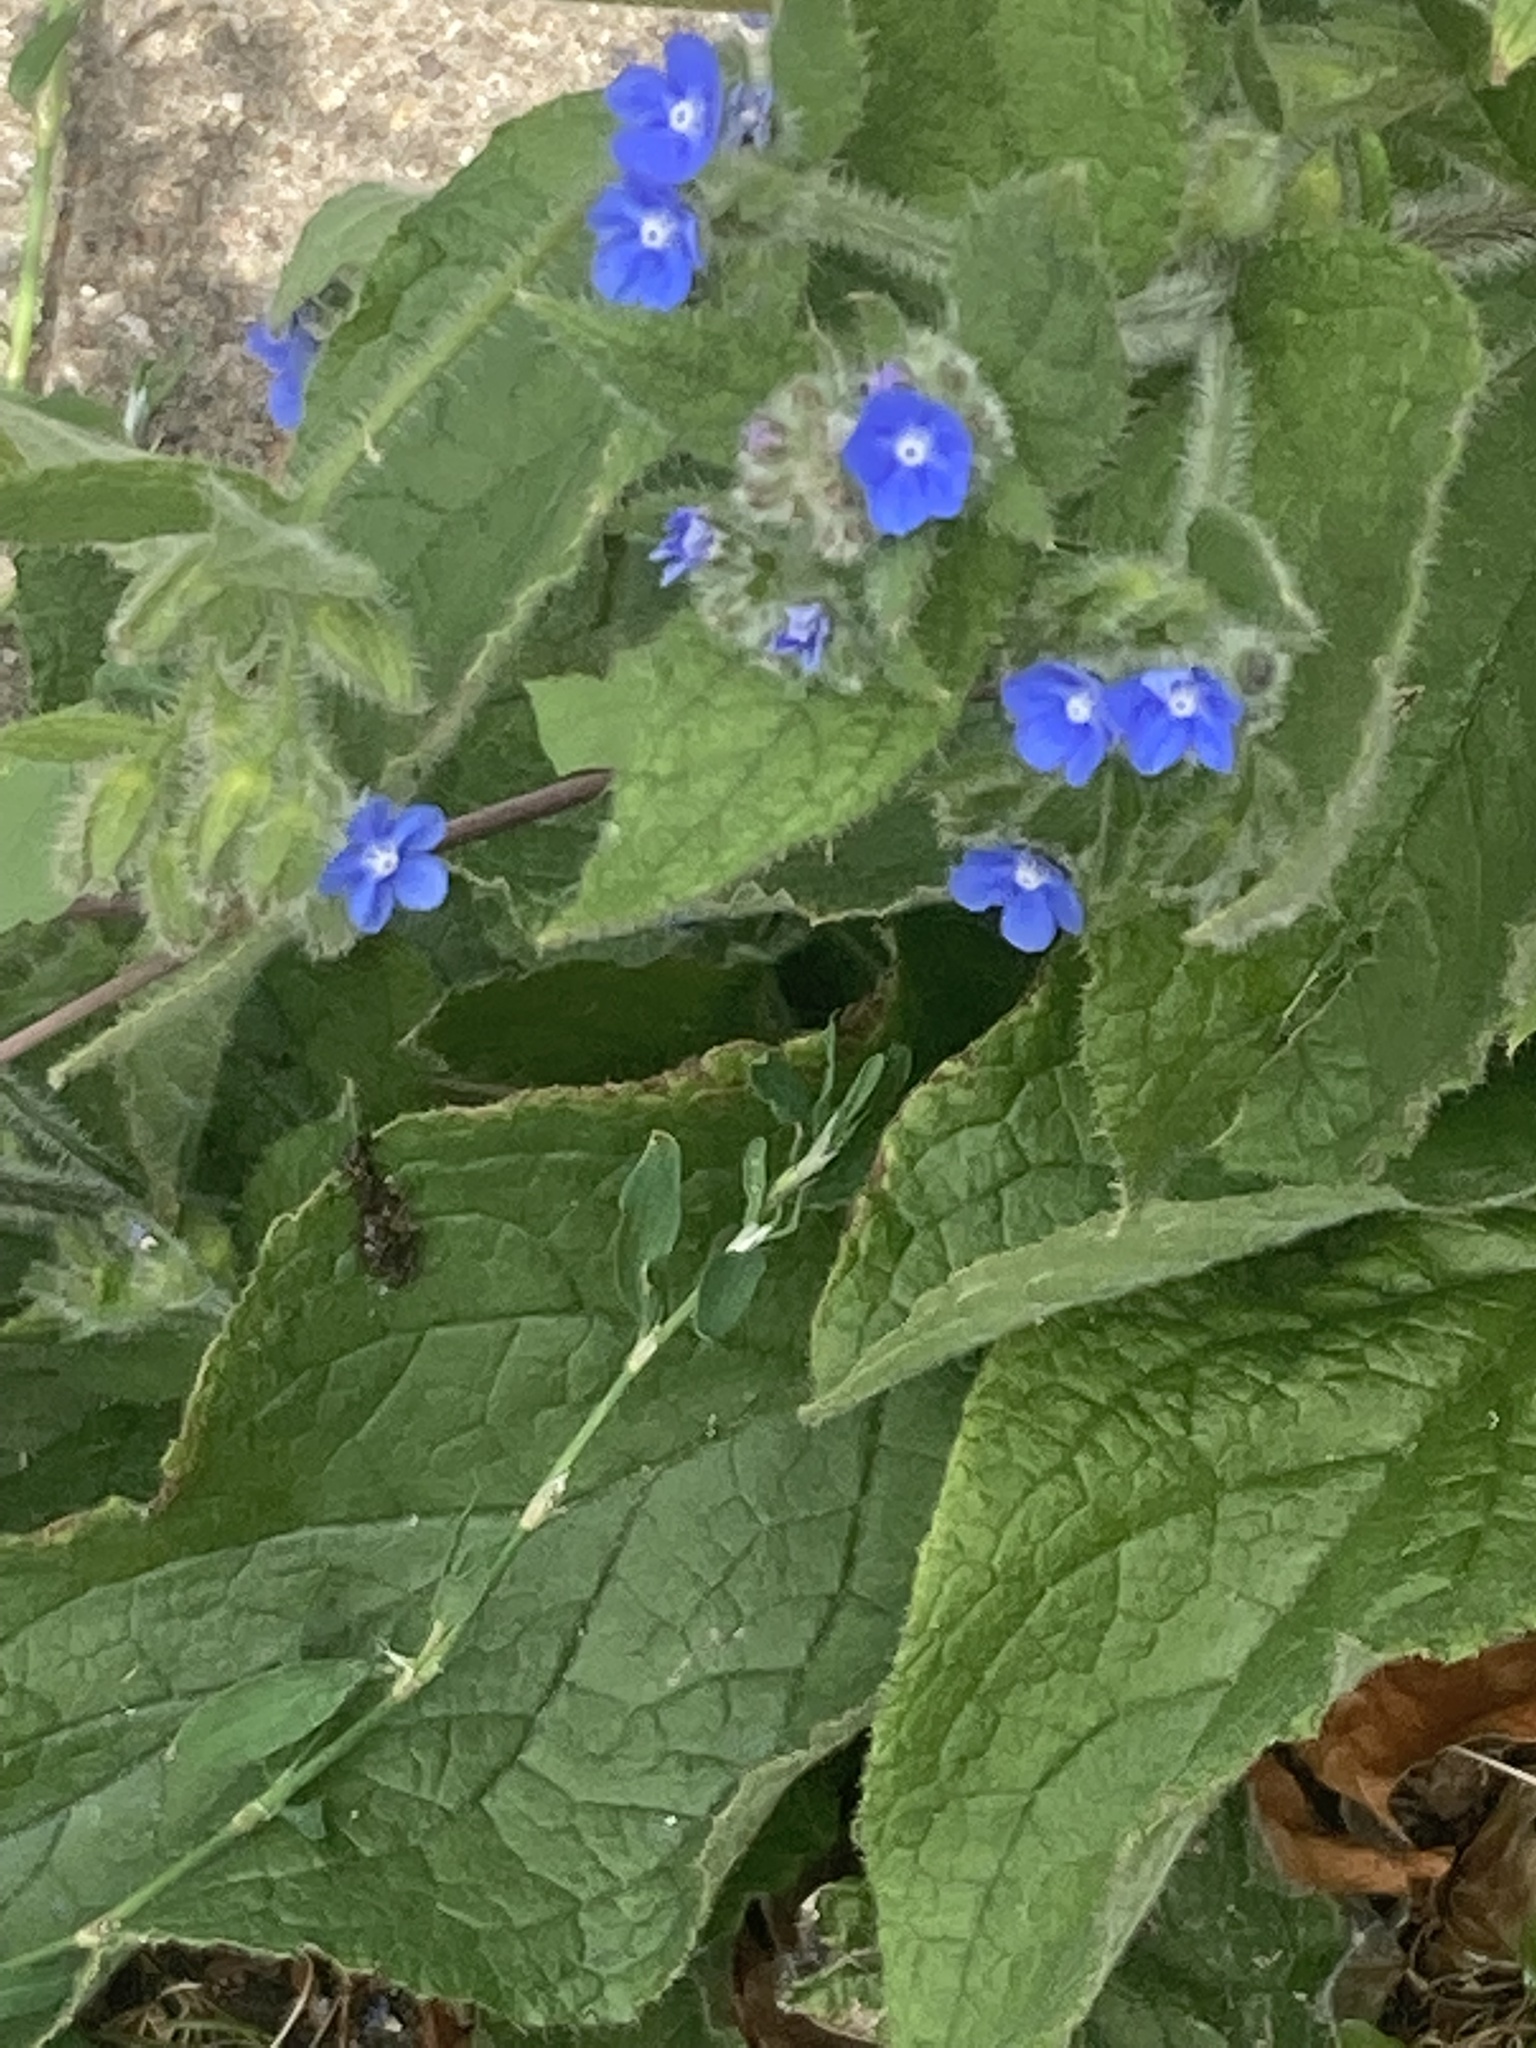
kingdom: Plantae
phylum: Tracheophyta
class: Magnoliopsida
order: Boraginales
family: Boraginaceae
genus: Pentaglottis
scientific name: Pentaglottis sempervirens
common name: Green alkanet
